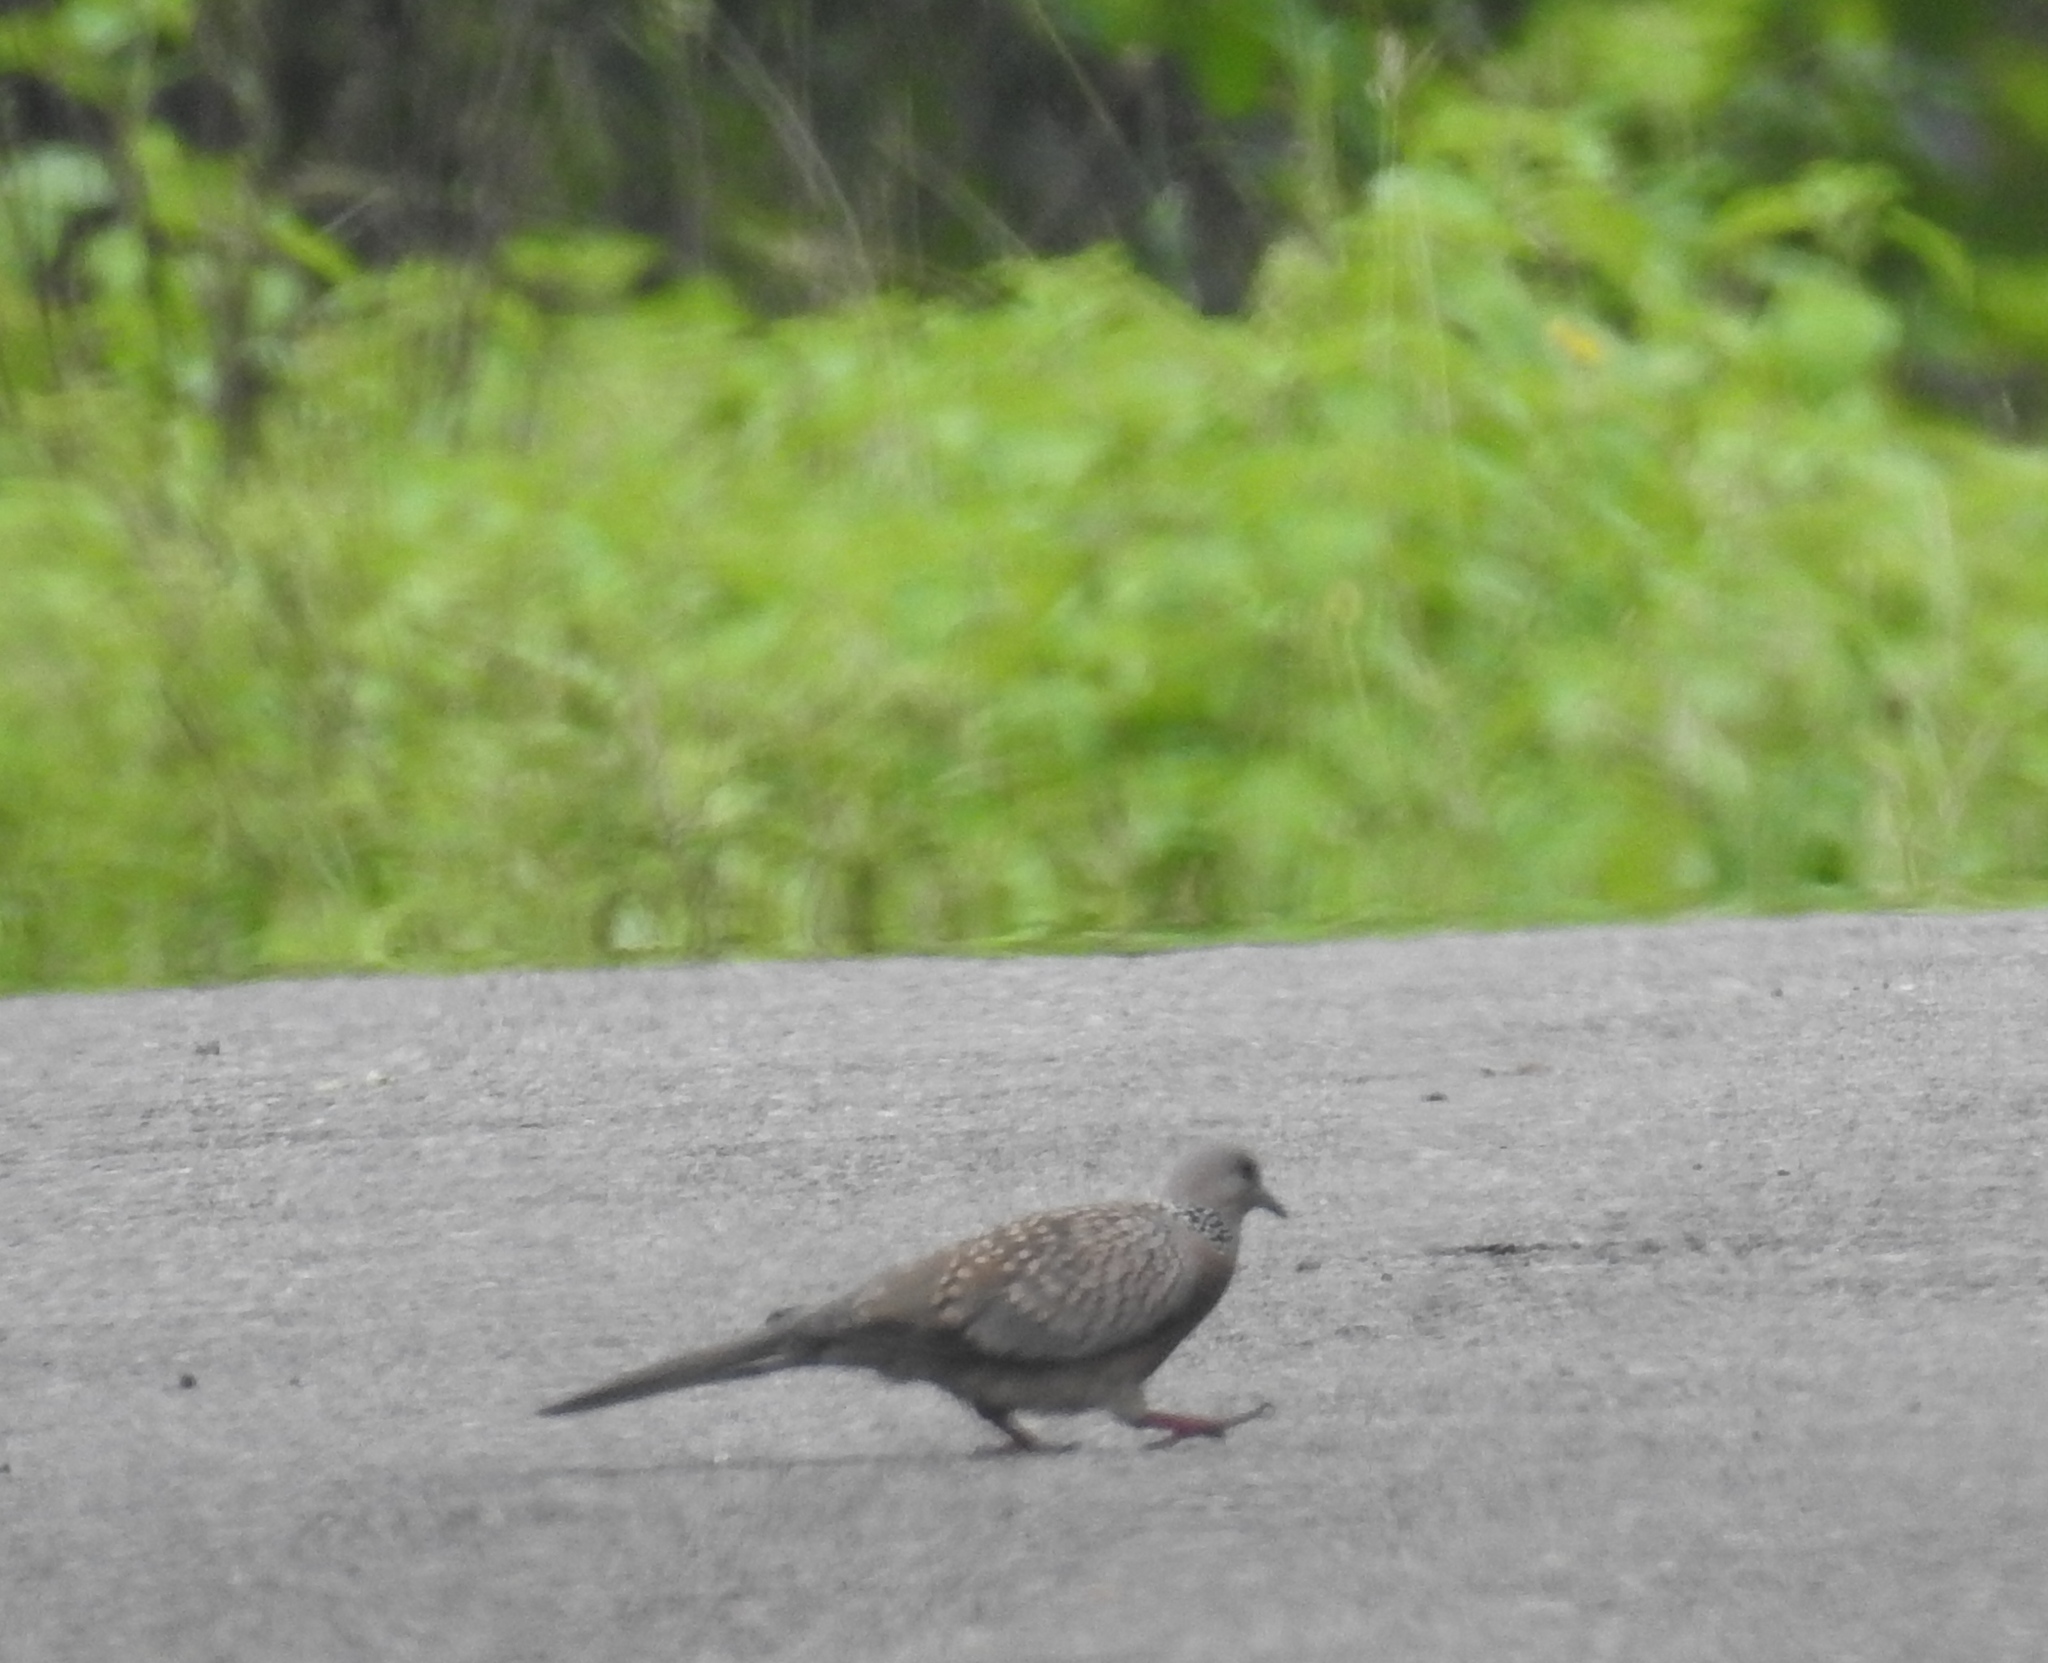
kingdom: Animalia
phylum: Chordata
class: Aves
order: Columbiformes
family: Columbidae
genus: Spilopelia
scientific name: Spilopelia chinensis
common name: Spotted dove
